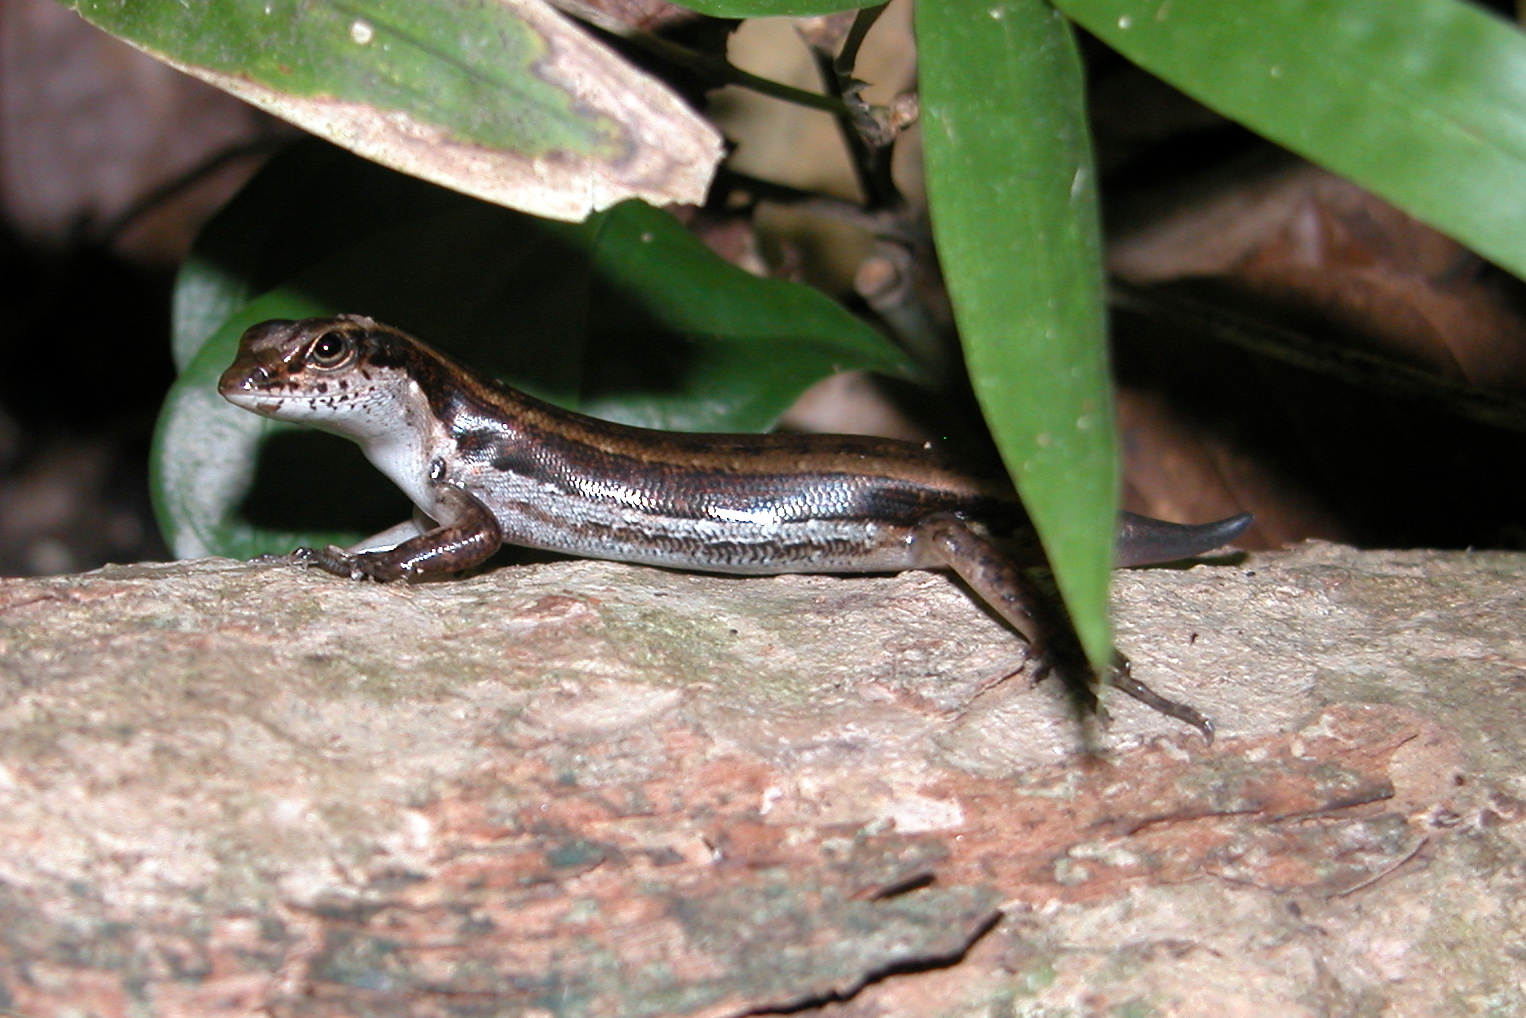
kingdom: Animalia
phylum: Chordata
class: Squamata
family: Scincidae
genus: Sphenomorphus
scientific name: Sphenomorphus dussumieri
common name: Dussumier's forest skink
